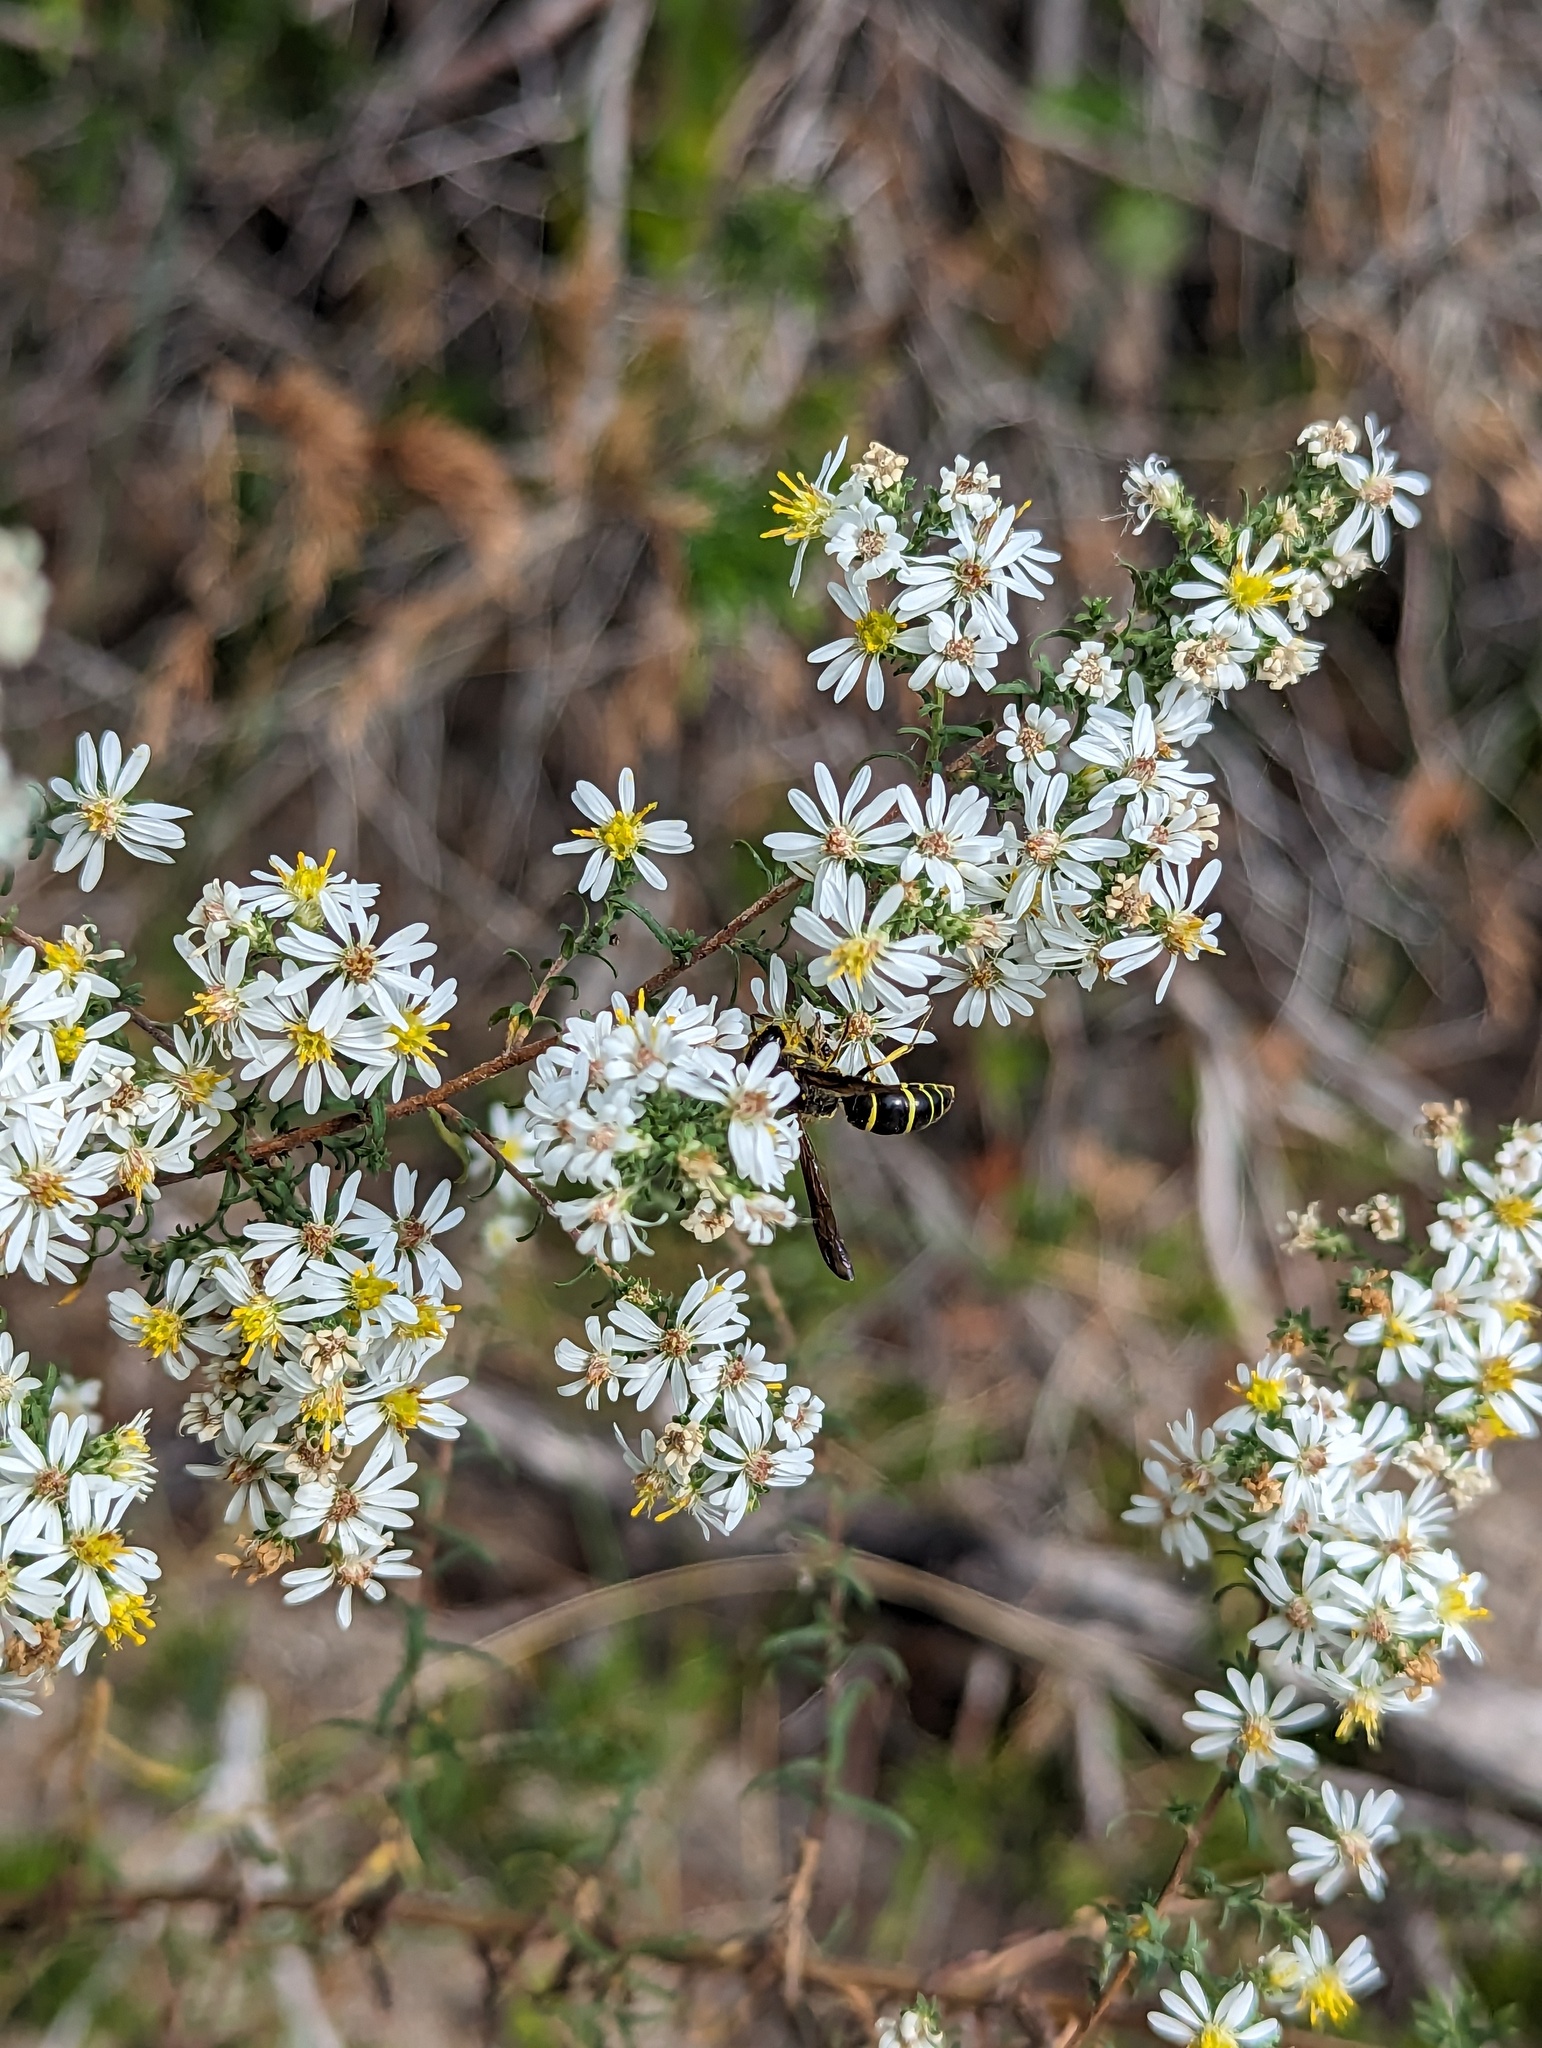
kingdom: Animalia
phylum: Arthropoda
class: Insecta
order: Hymenoptera
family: Vespidae
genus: Ancistrocerus
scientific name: Ancistrocerus
